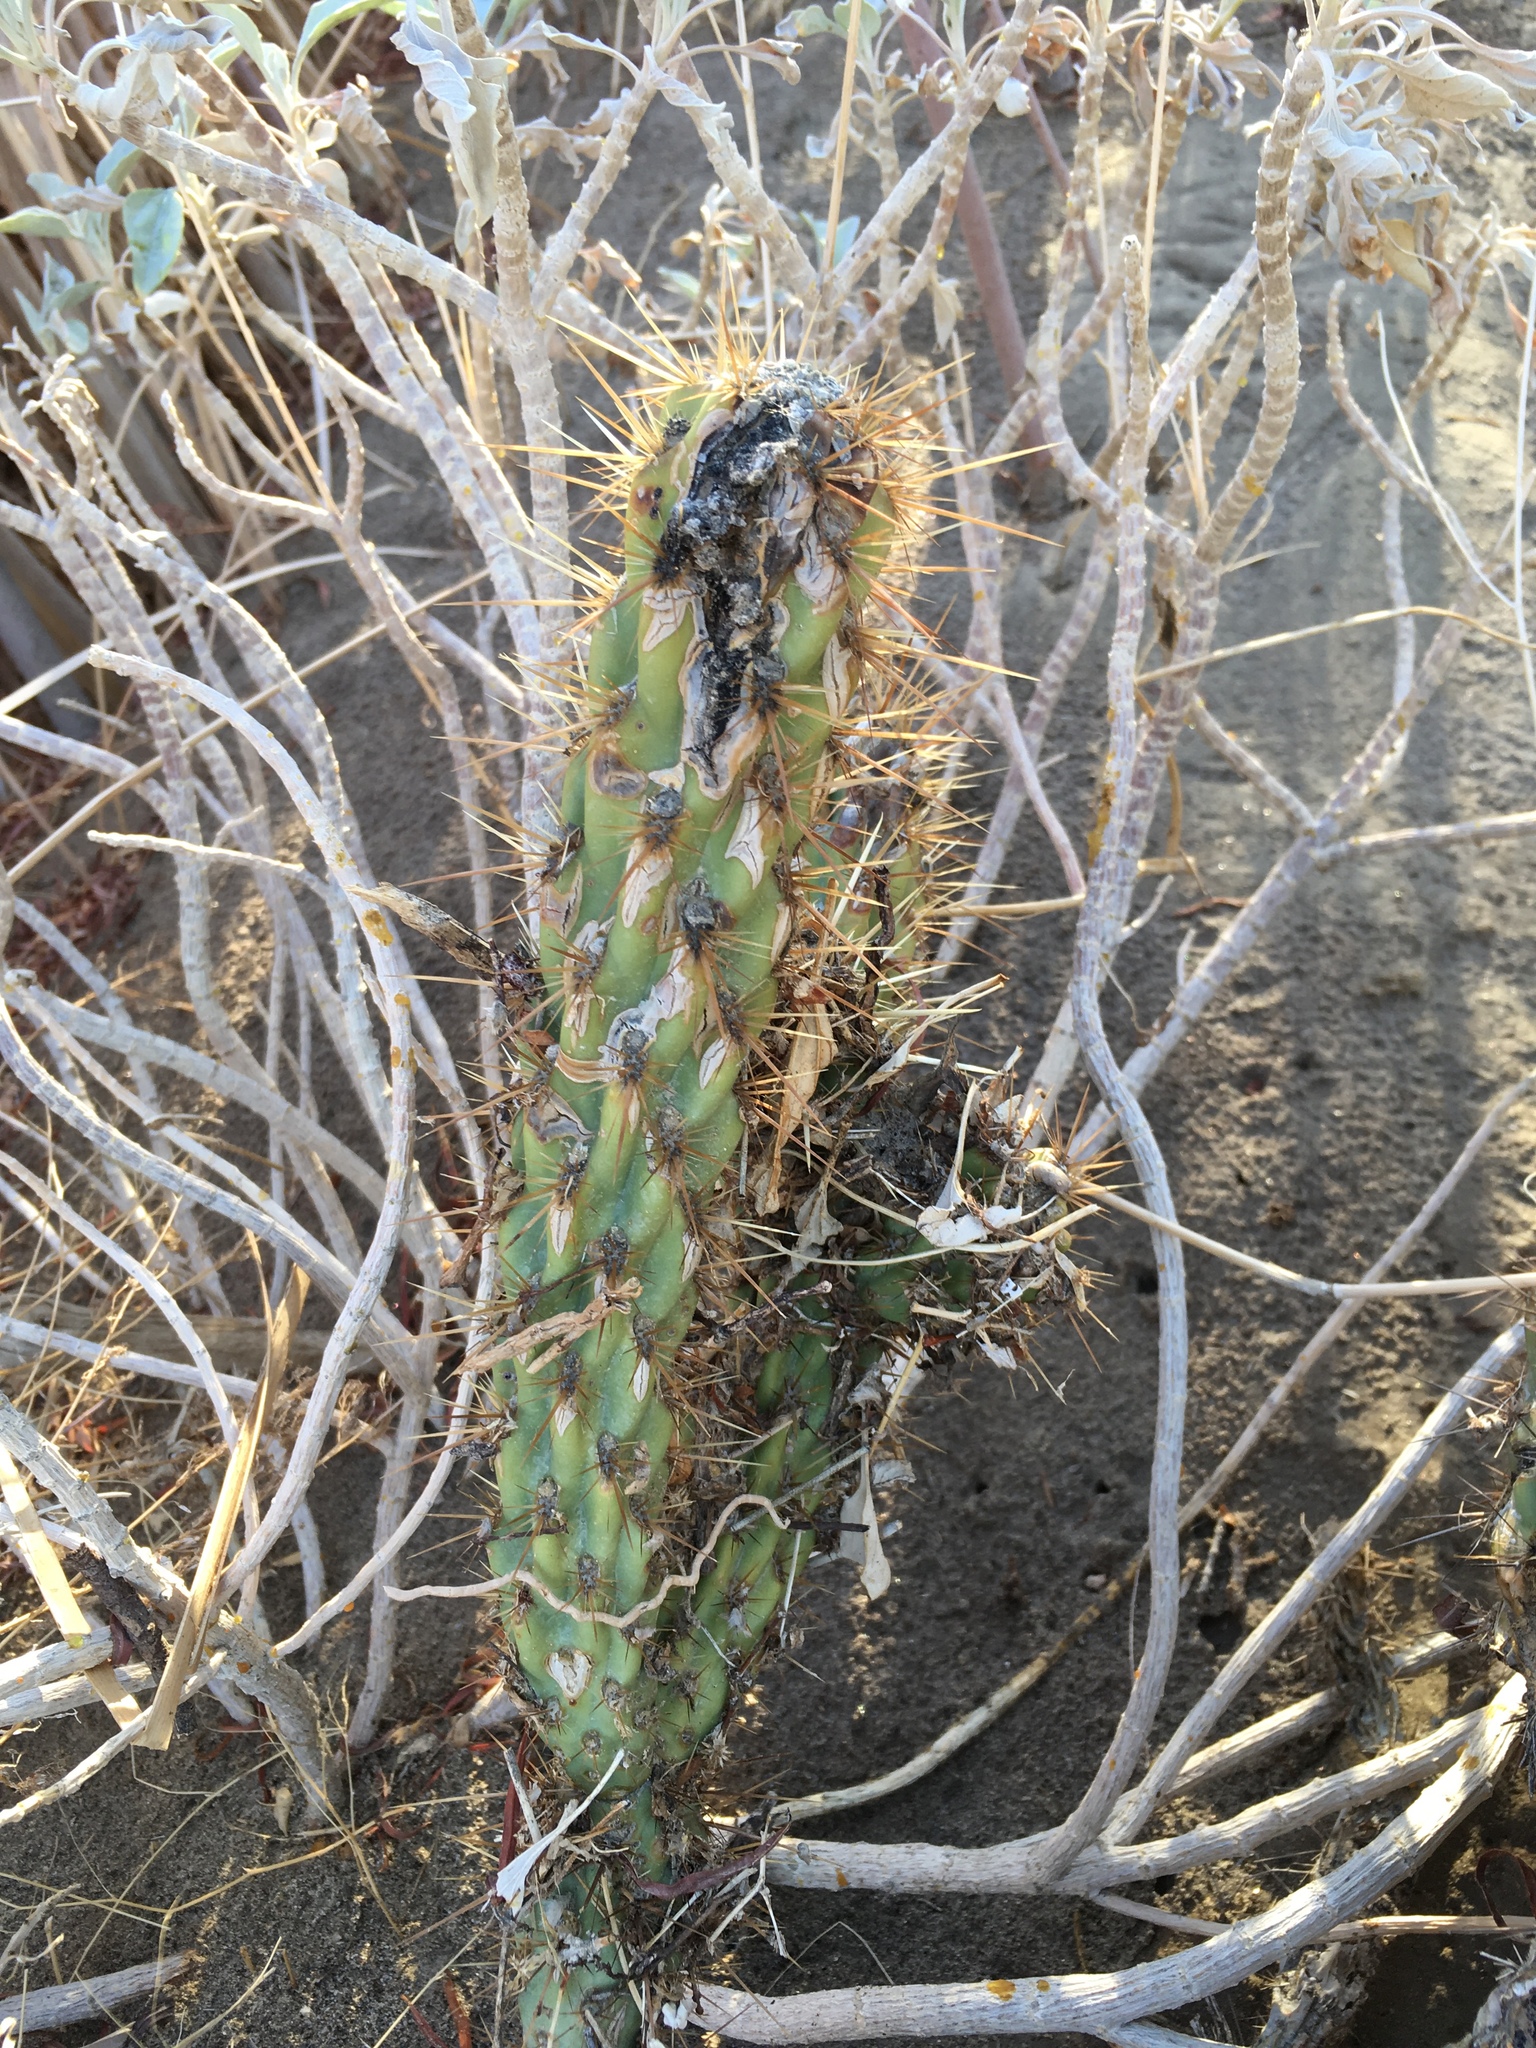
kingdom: Plantae
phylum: Tracheophyta
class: Magnoliopsida
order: Caryophyllales
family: Cactaceae
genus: Cylindropuntia
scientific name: Cylindropuntia ganderi
